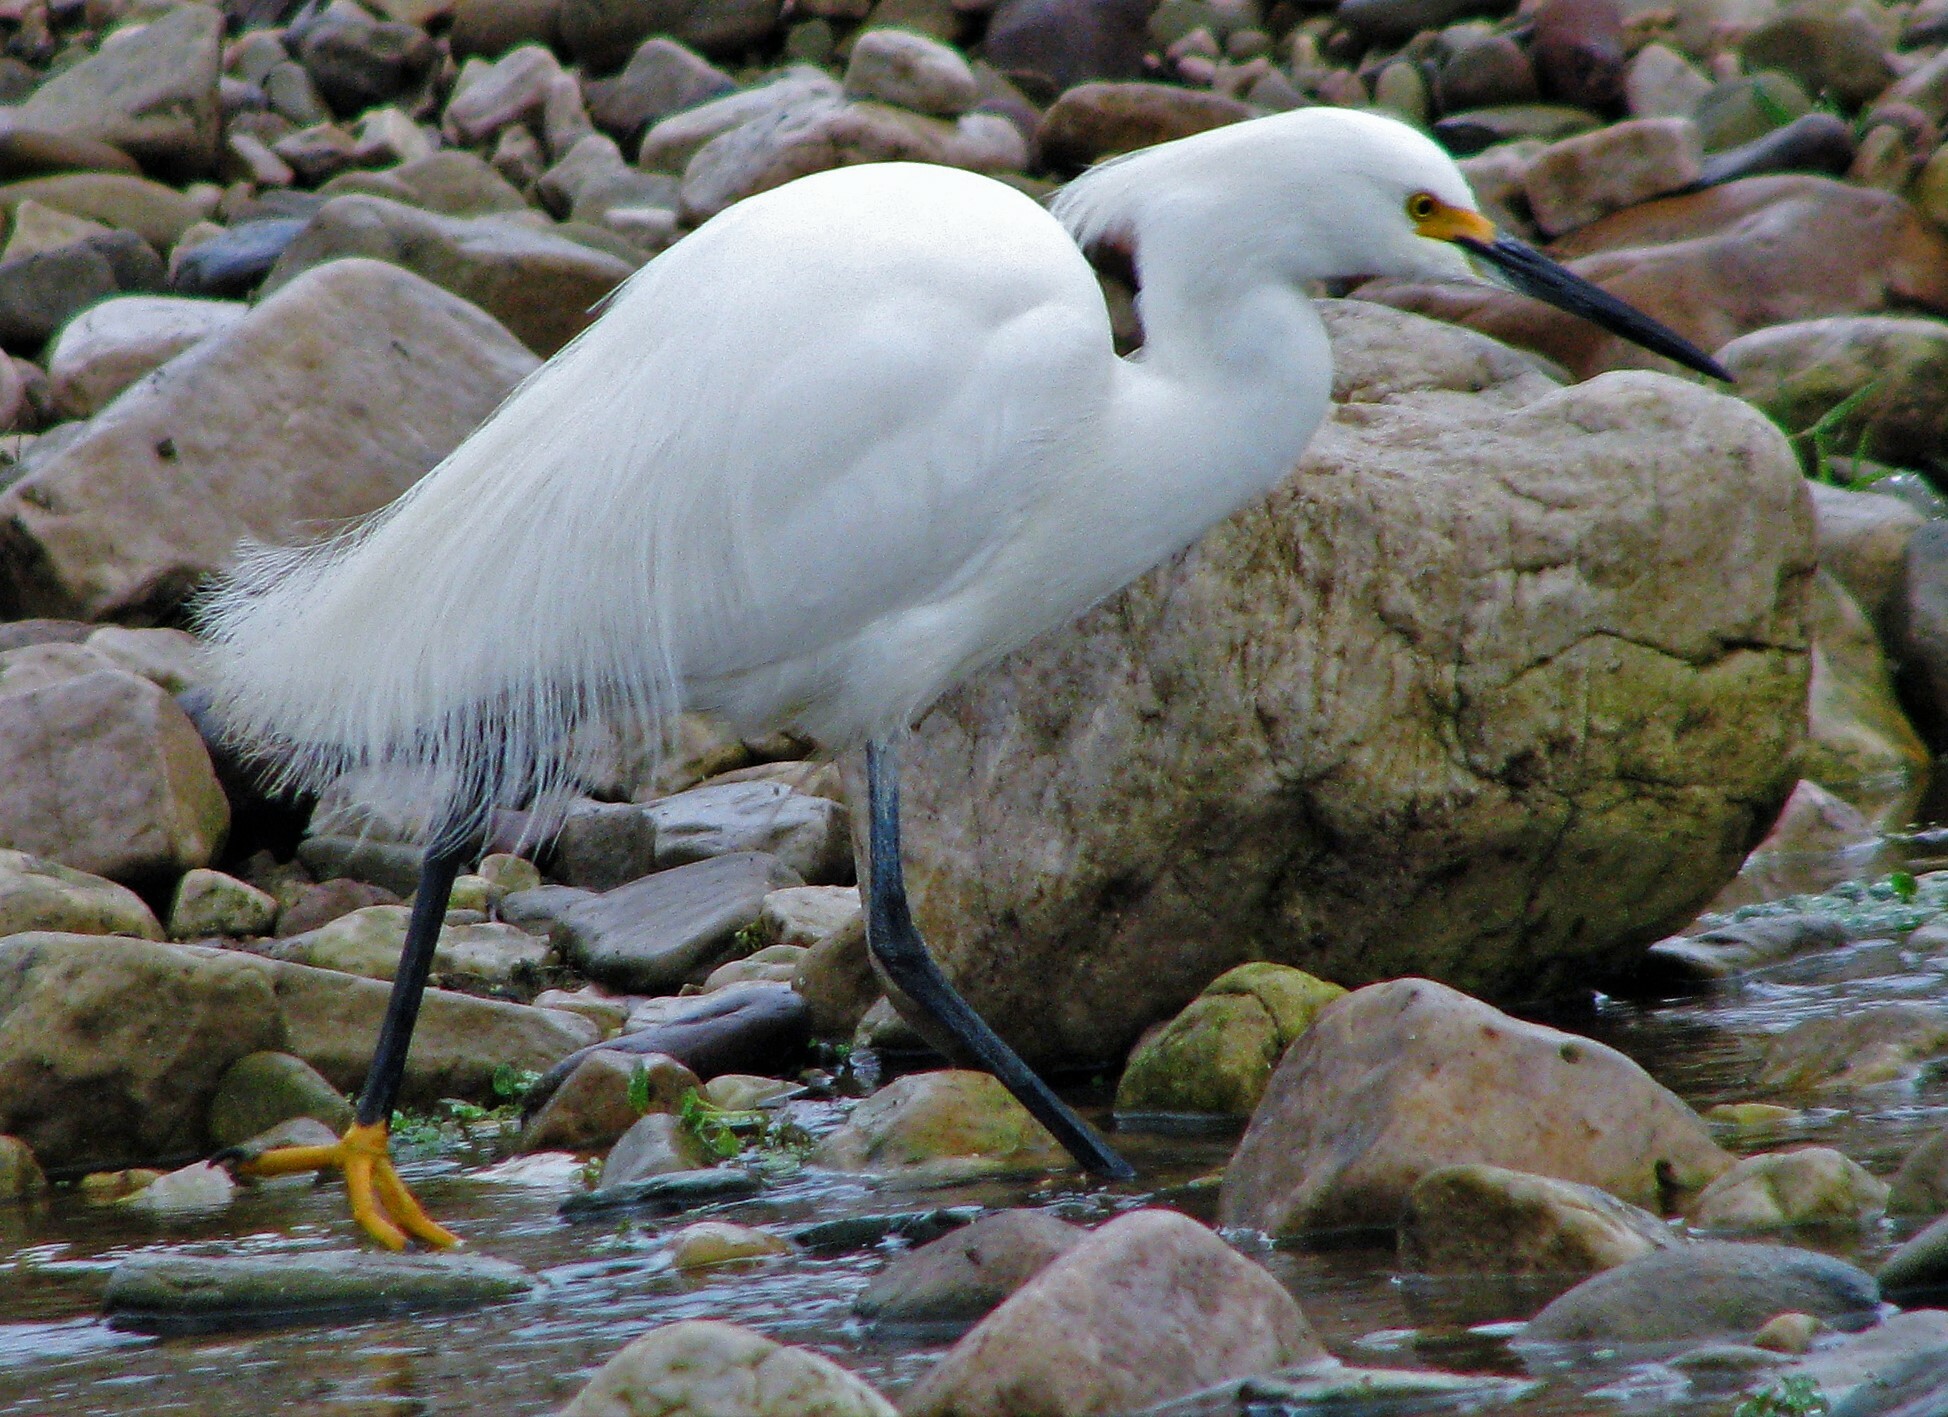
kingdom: Animalia
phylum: Chordata
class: Aves
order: Pelecaniformes
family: Ardeidae
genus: Egretta
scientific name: Egretta thula
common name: Snowy egret
